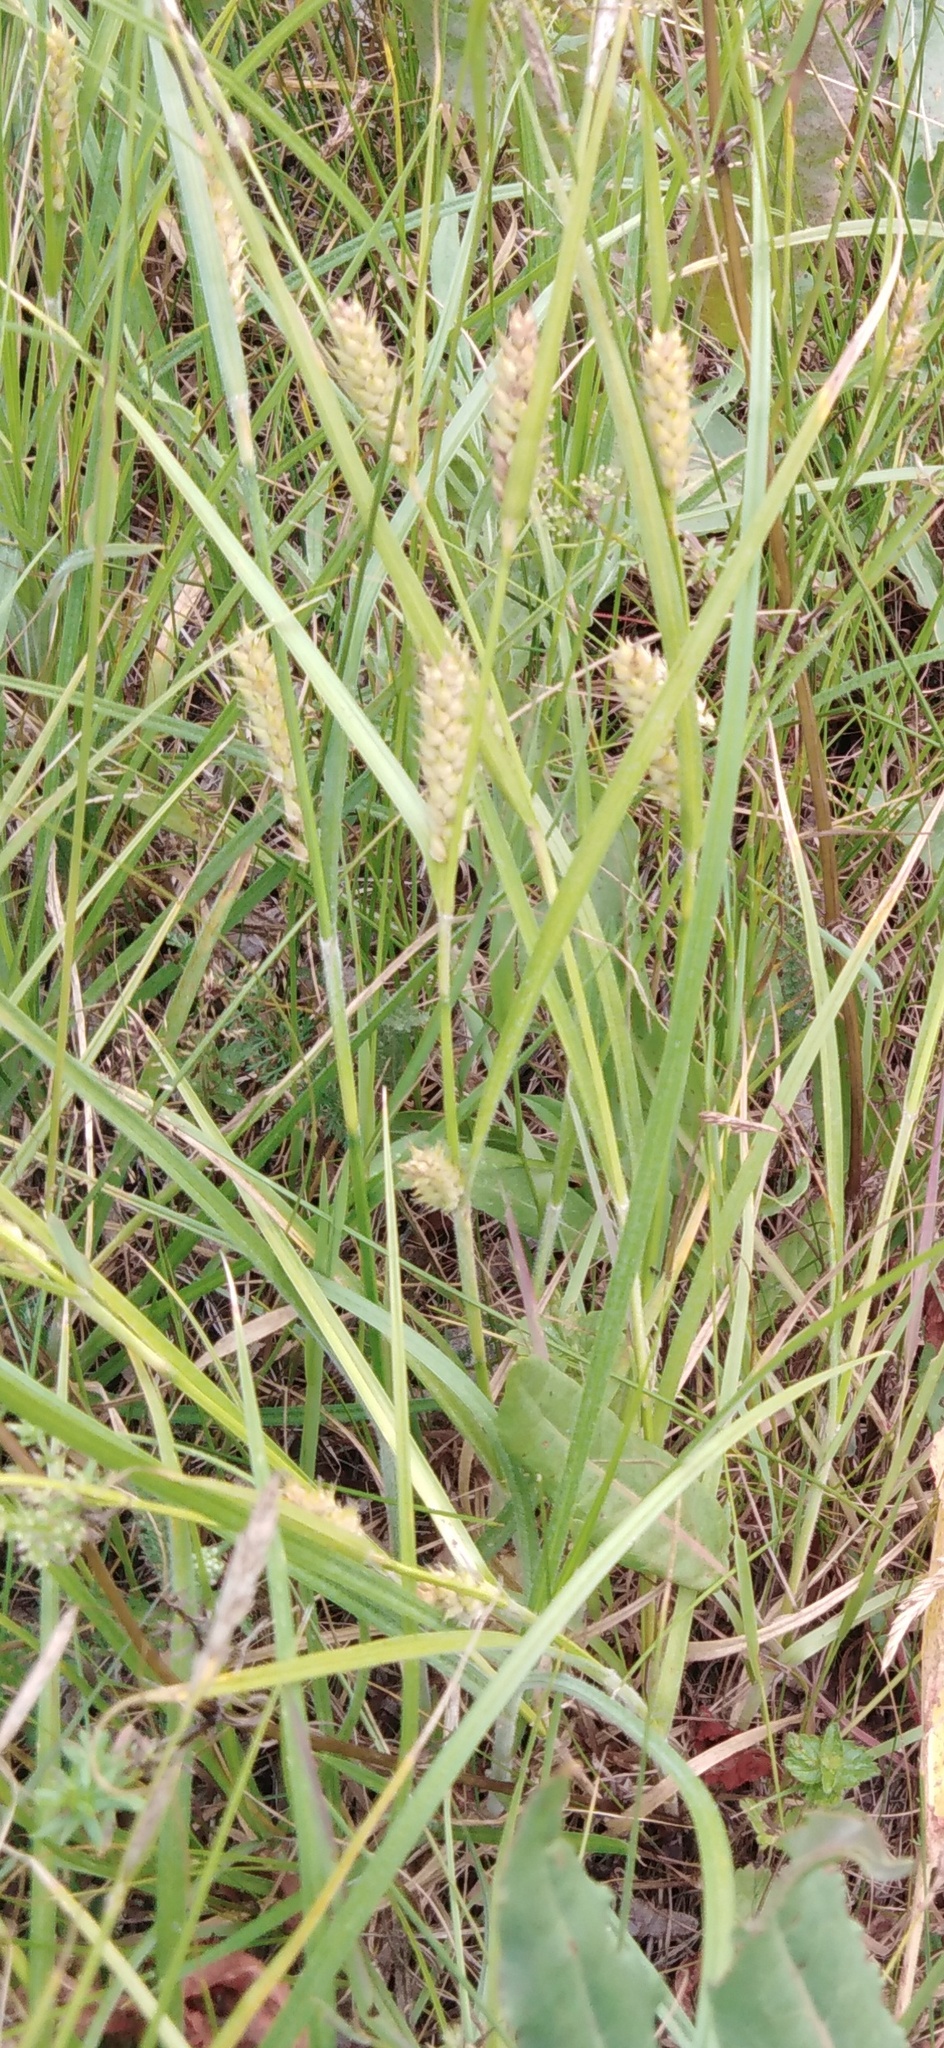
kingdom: Plantae
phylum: Tracheophyta
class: Liliopsida
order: Poales
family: Cyperaceae
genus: Carex
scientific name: Carex hirta
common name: Hairy sedge
